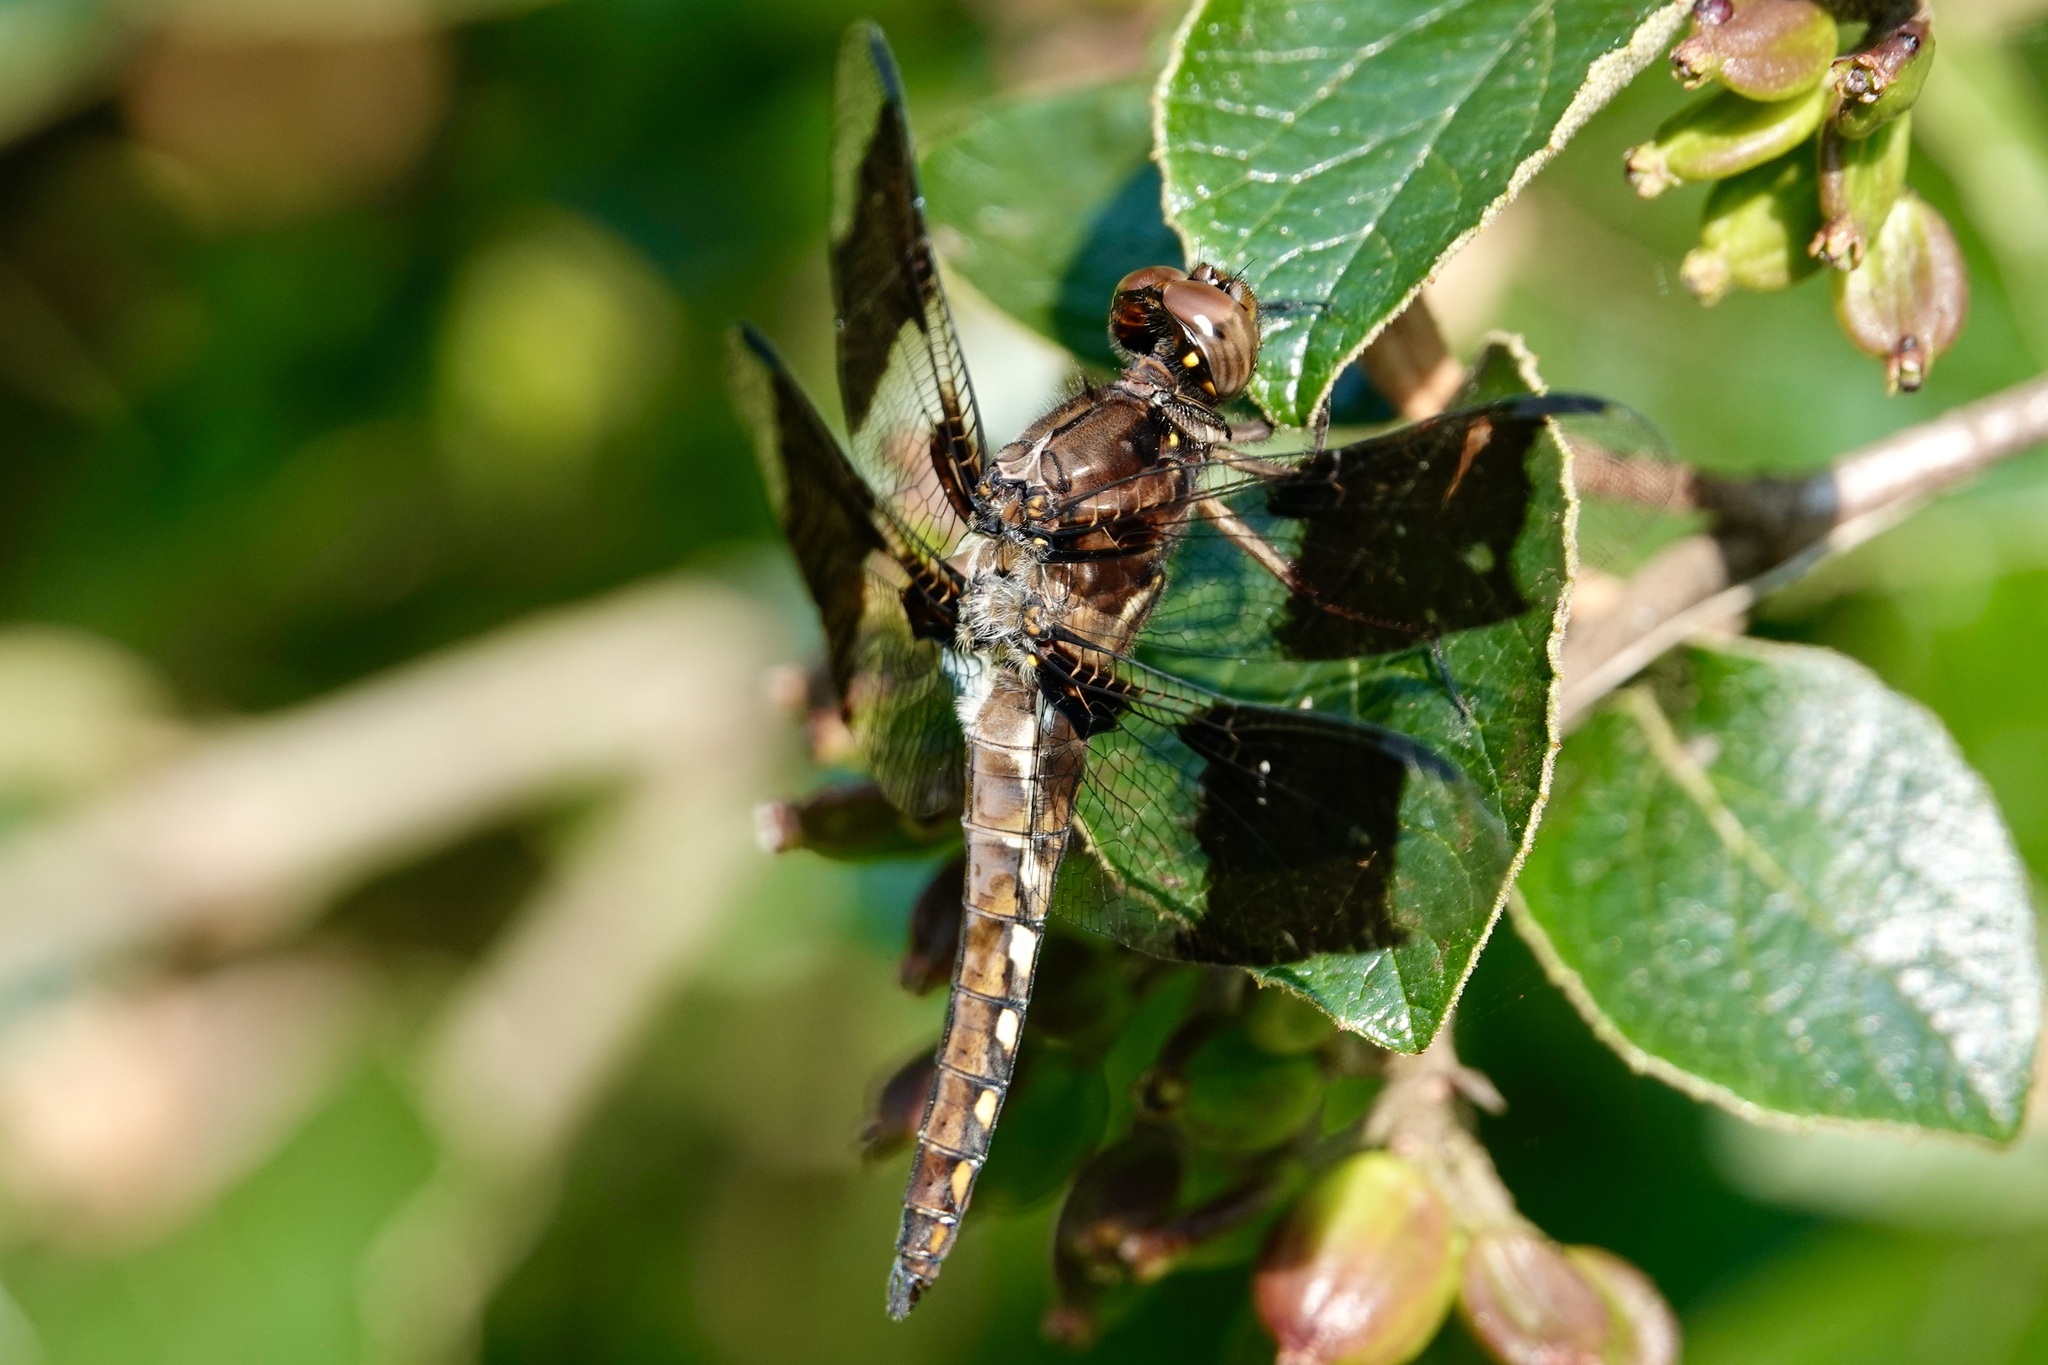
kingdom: Animalia
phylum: Arthropoda
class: Insecta
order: Odonata
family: Libellulidae
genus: Plathemis
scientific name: Plathemis lydia
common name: Common whitetail
